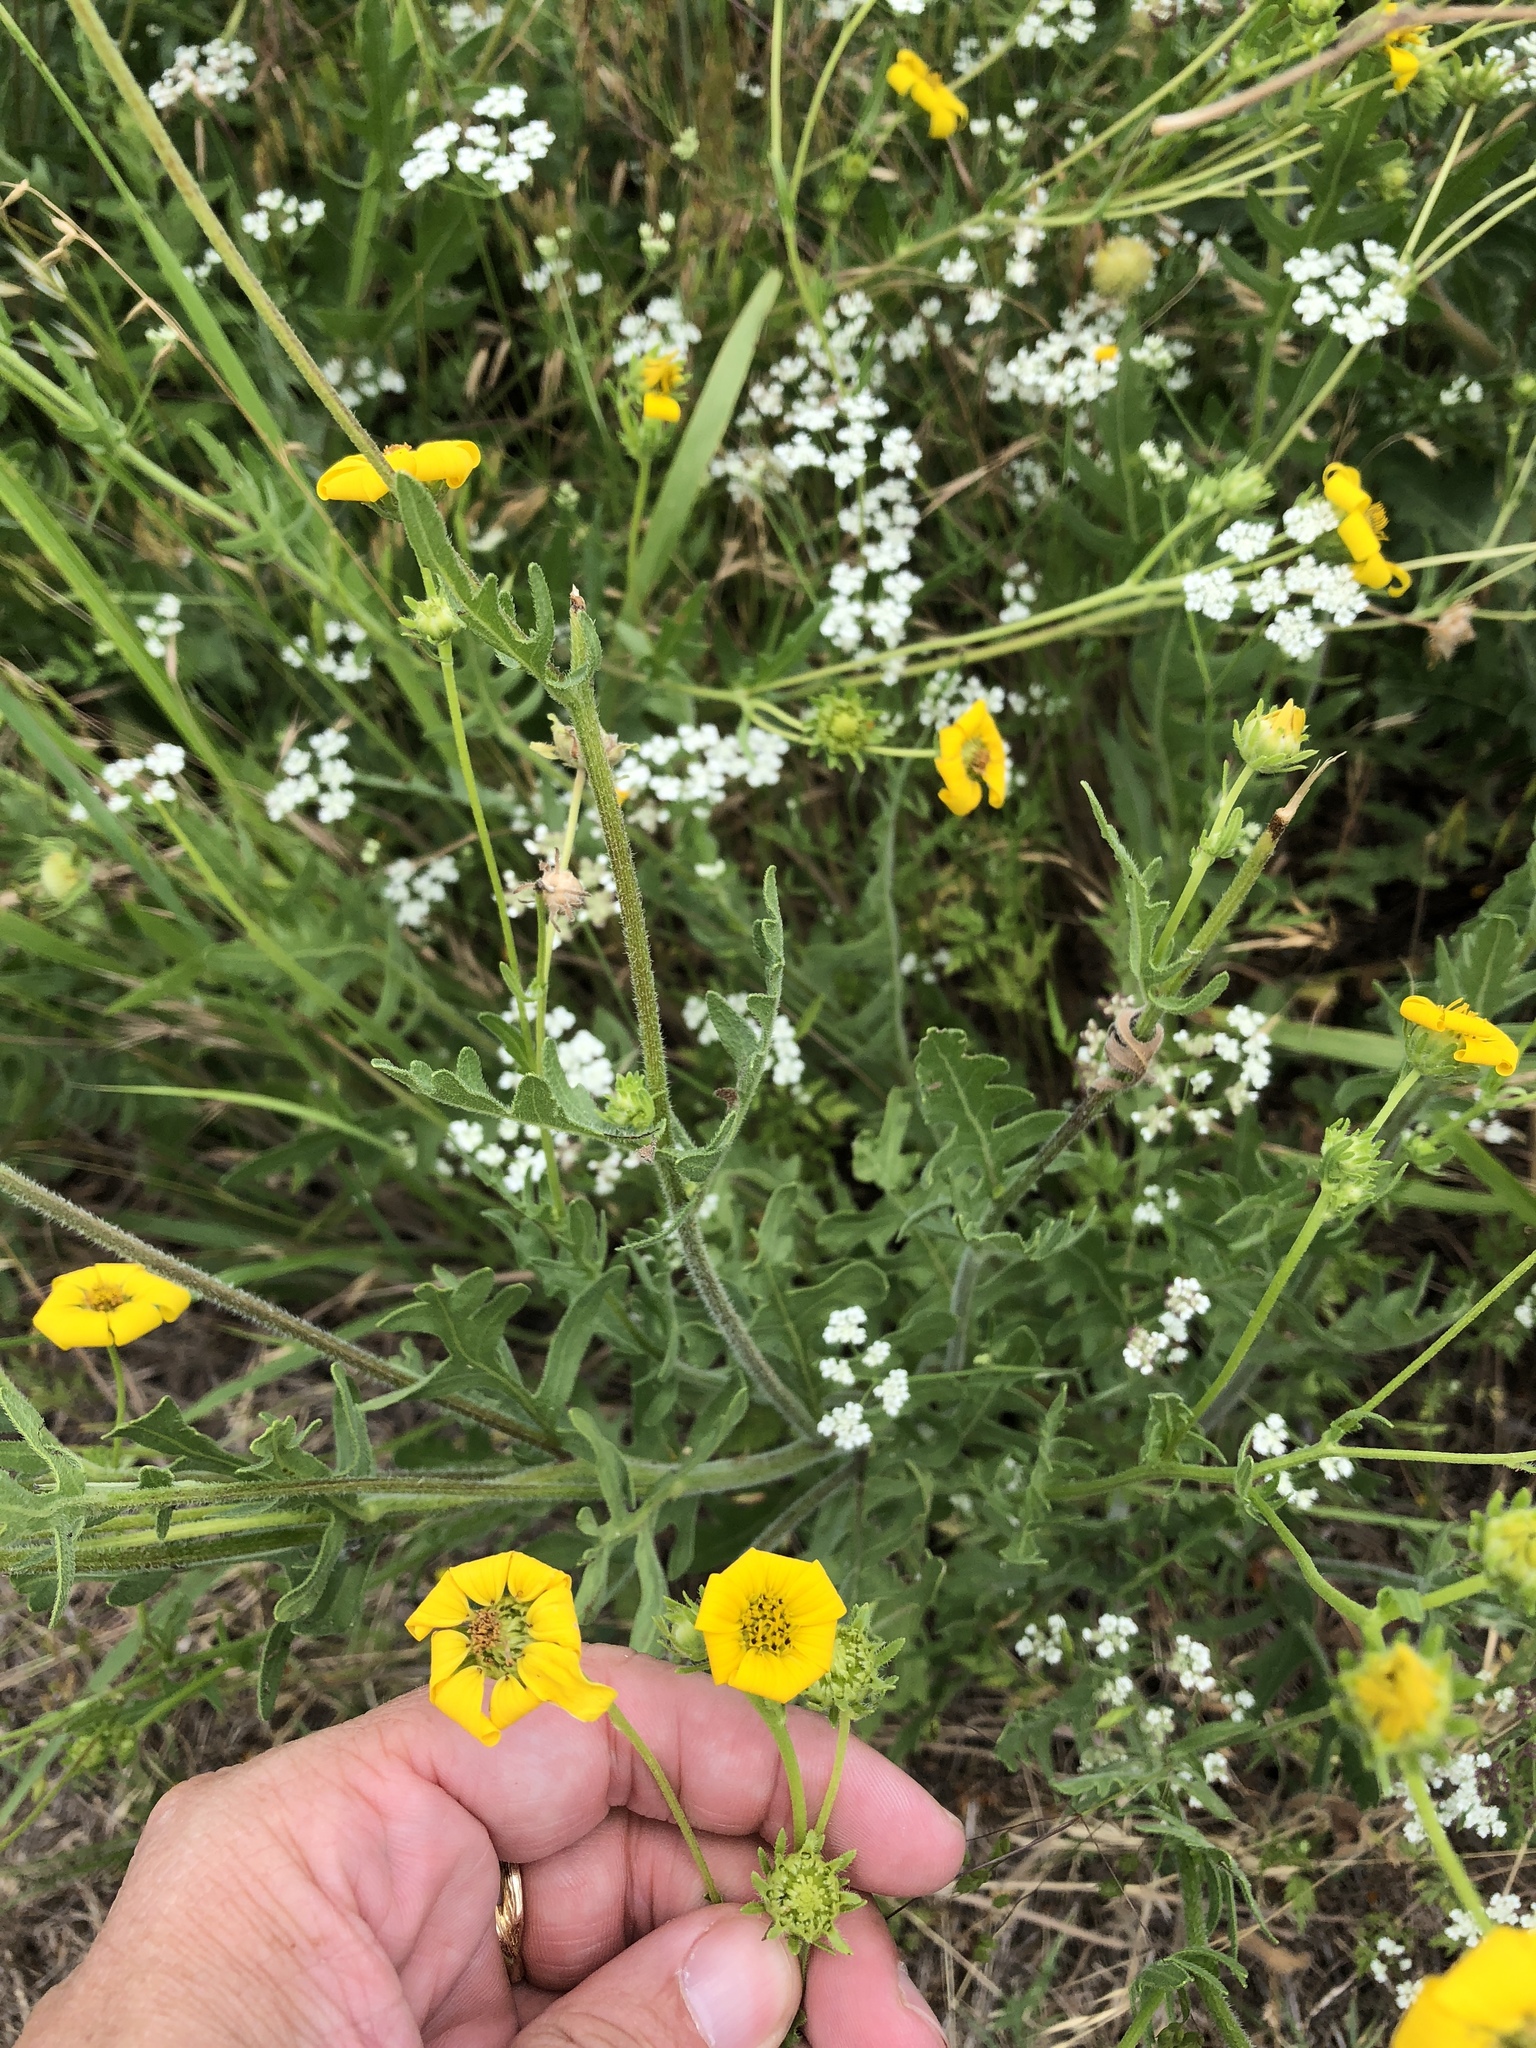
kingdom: Plantae
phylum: Tracheophyta
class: Magnoliopsida
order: Asterales
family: Asteraceae
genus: Engelmannia
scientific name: Engelmannia peristenia
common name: Engelmann's daisy
